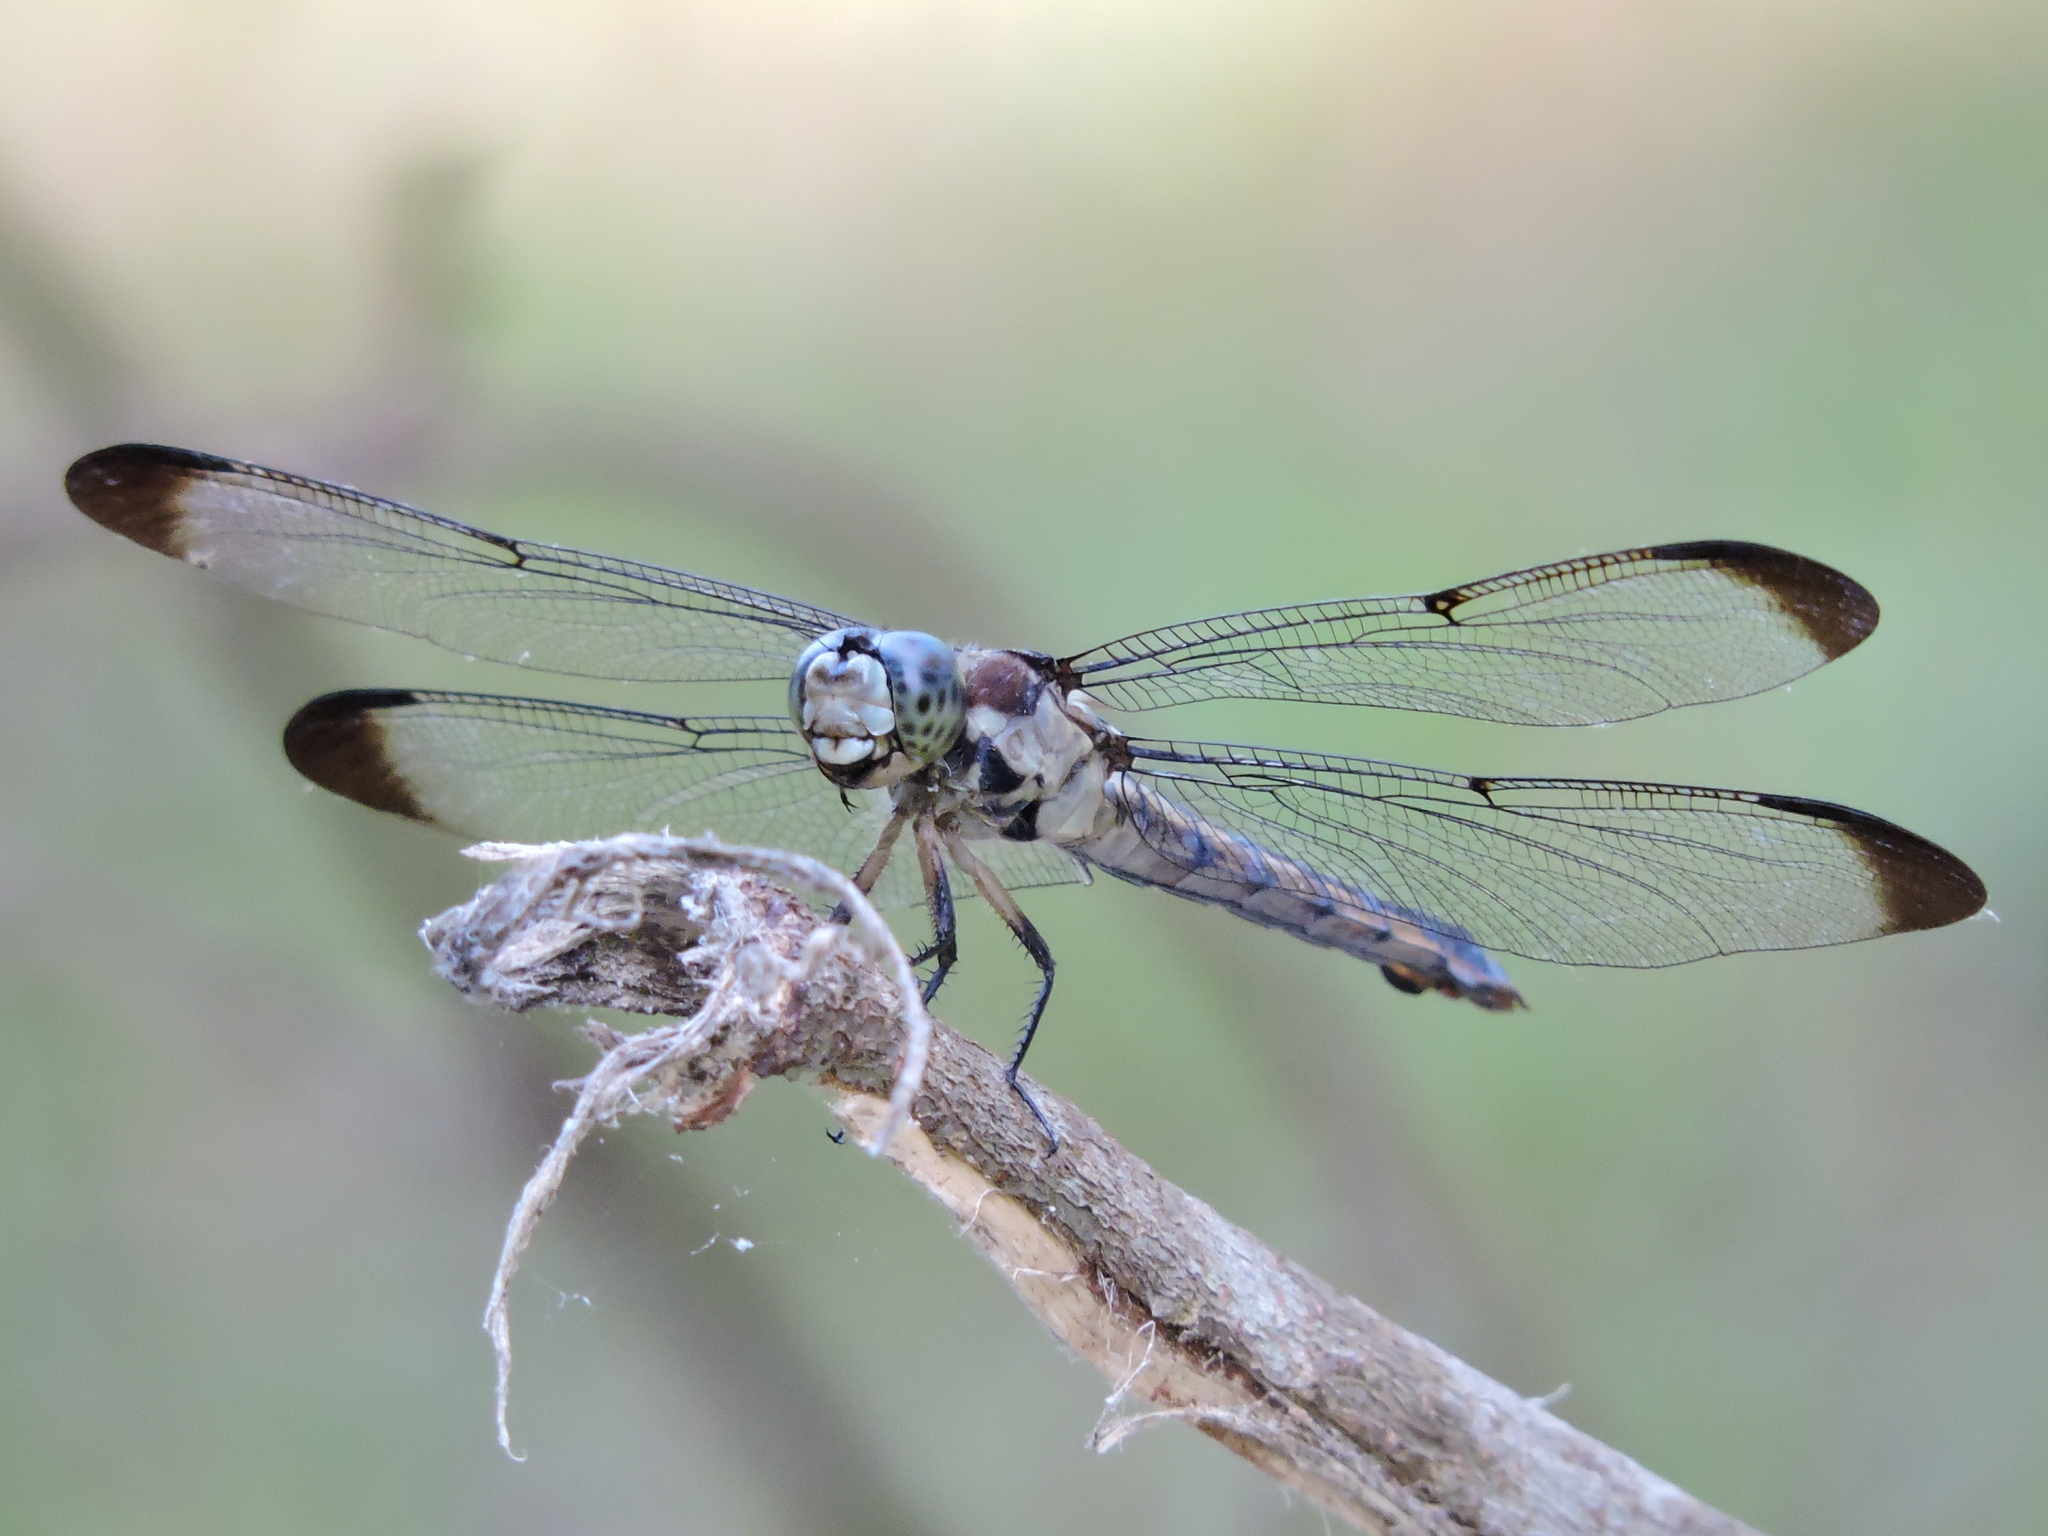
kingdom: Animalia
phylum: Arthropoda
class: Insecta
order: Odonata
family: Libellulidae
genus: Libellula
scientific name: Libellula vibrans
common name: Great blue skimmer
